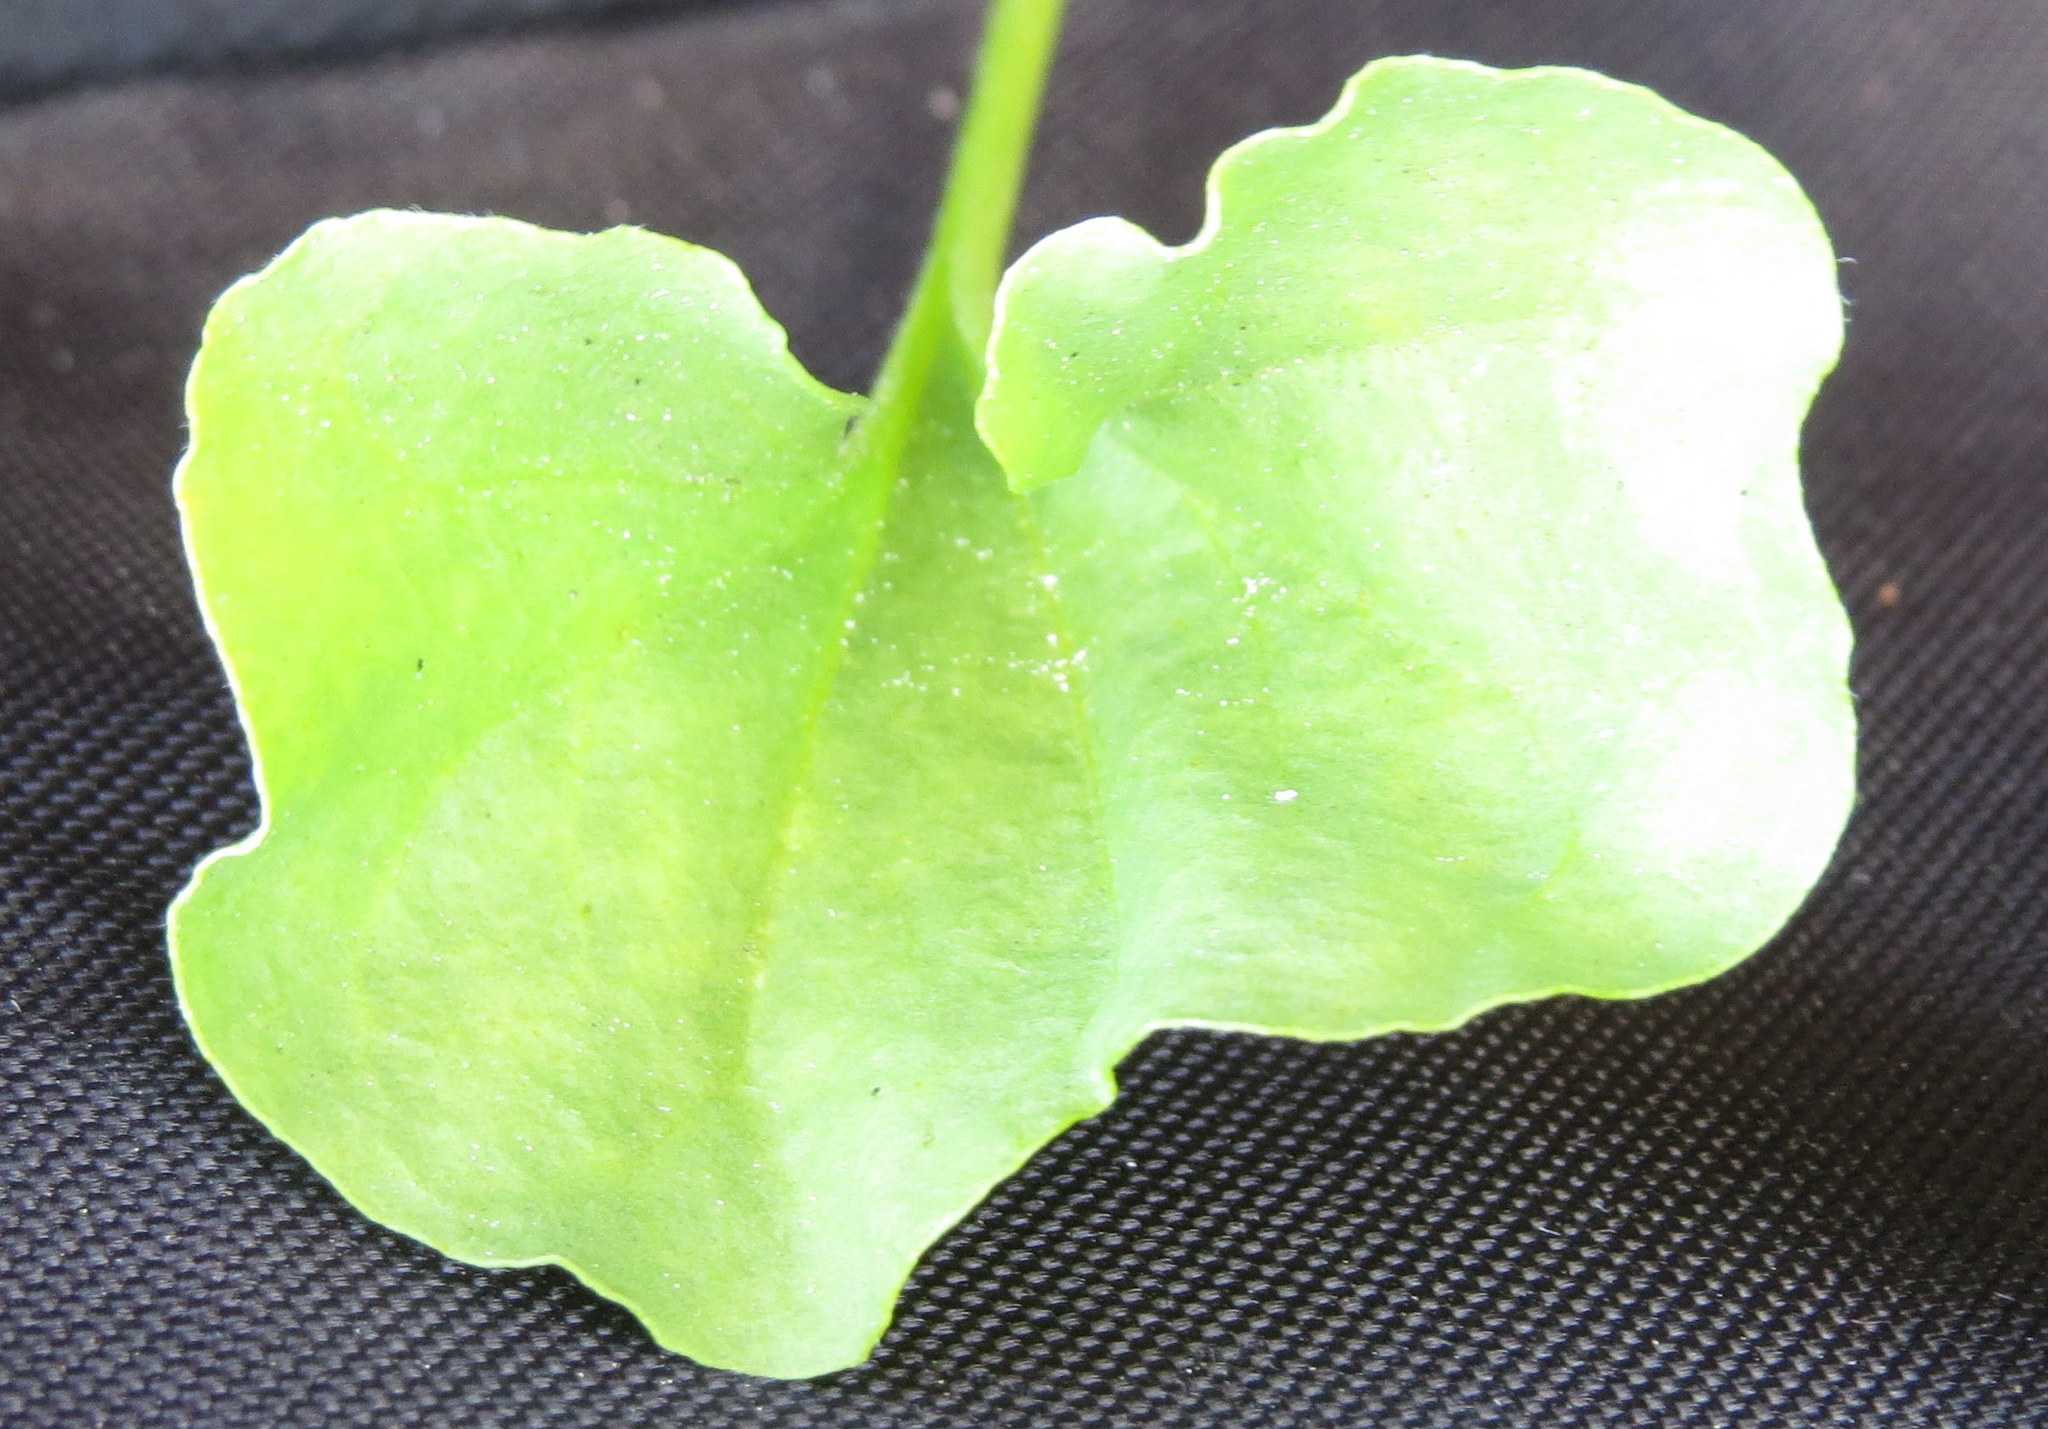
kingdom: Plantae
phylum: Tracheophyta
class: Magnoliopsida
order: Solanales
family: Convolvulaceae
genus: Dichondra
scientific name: Dichondra occidentalis
